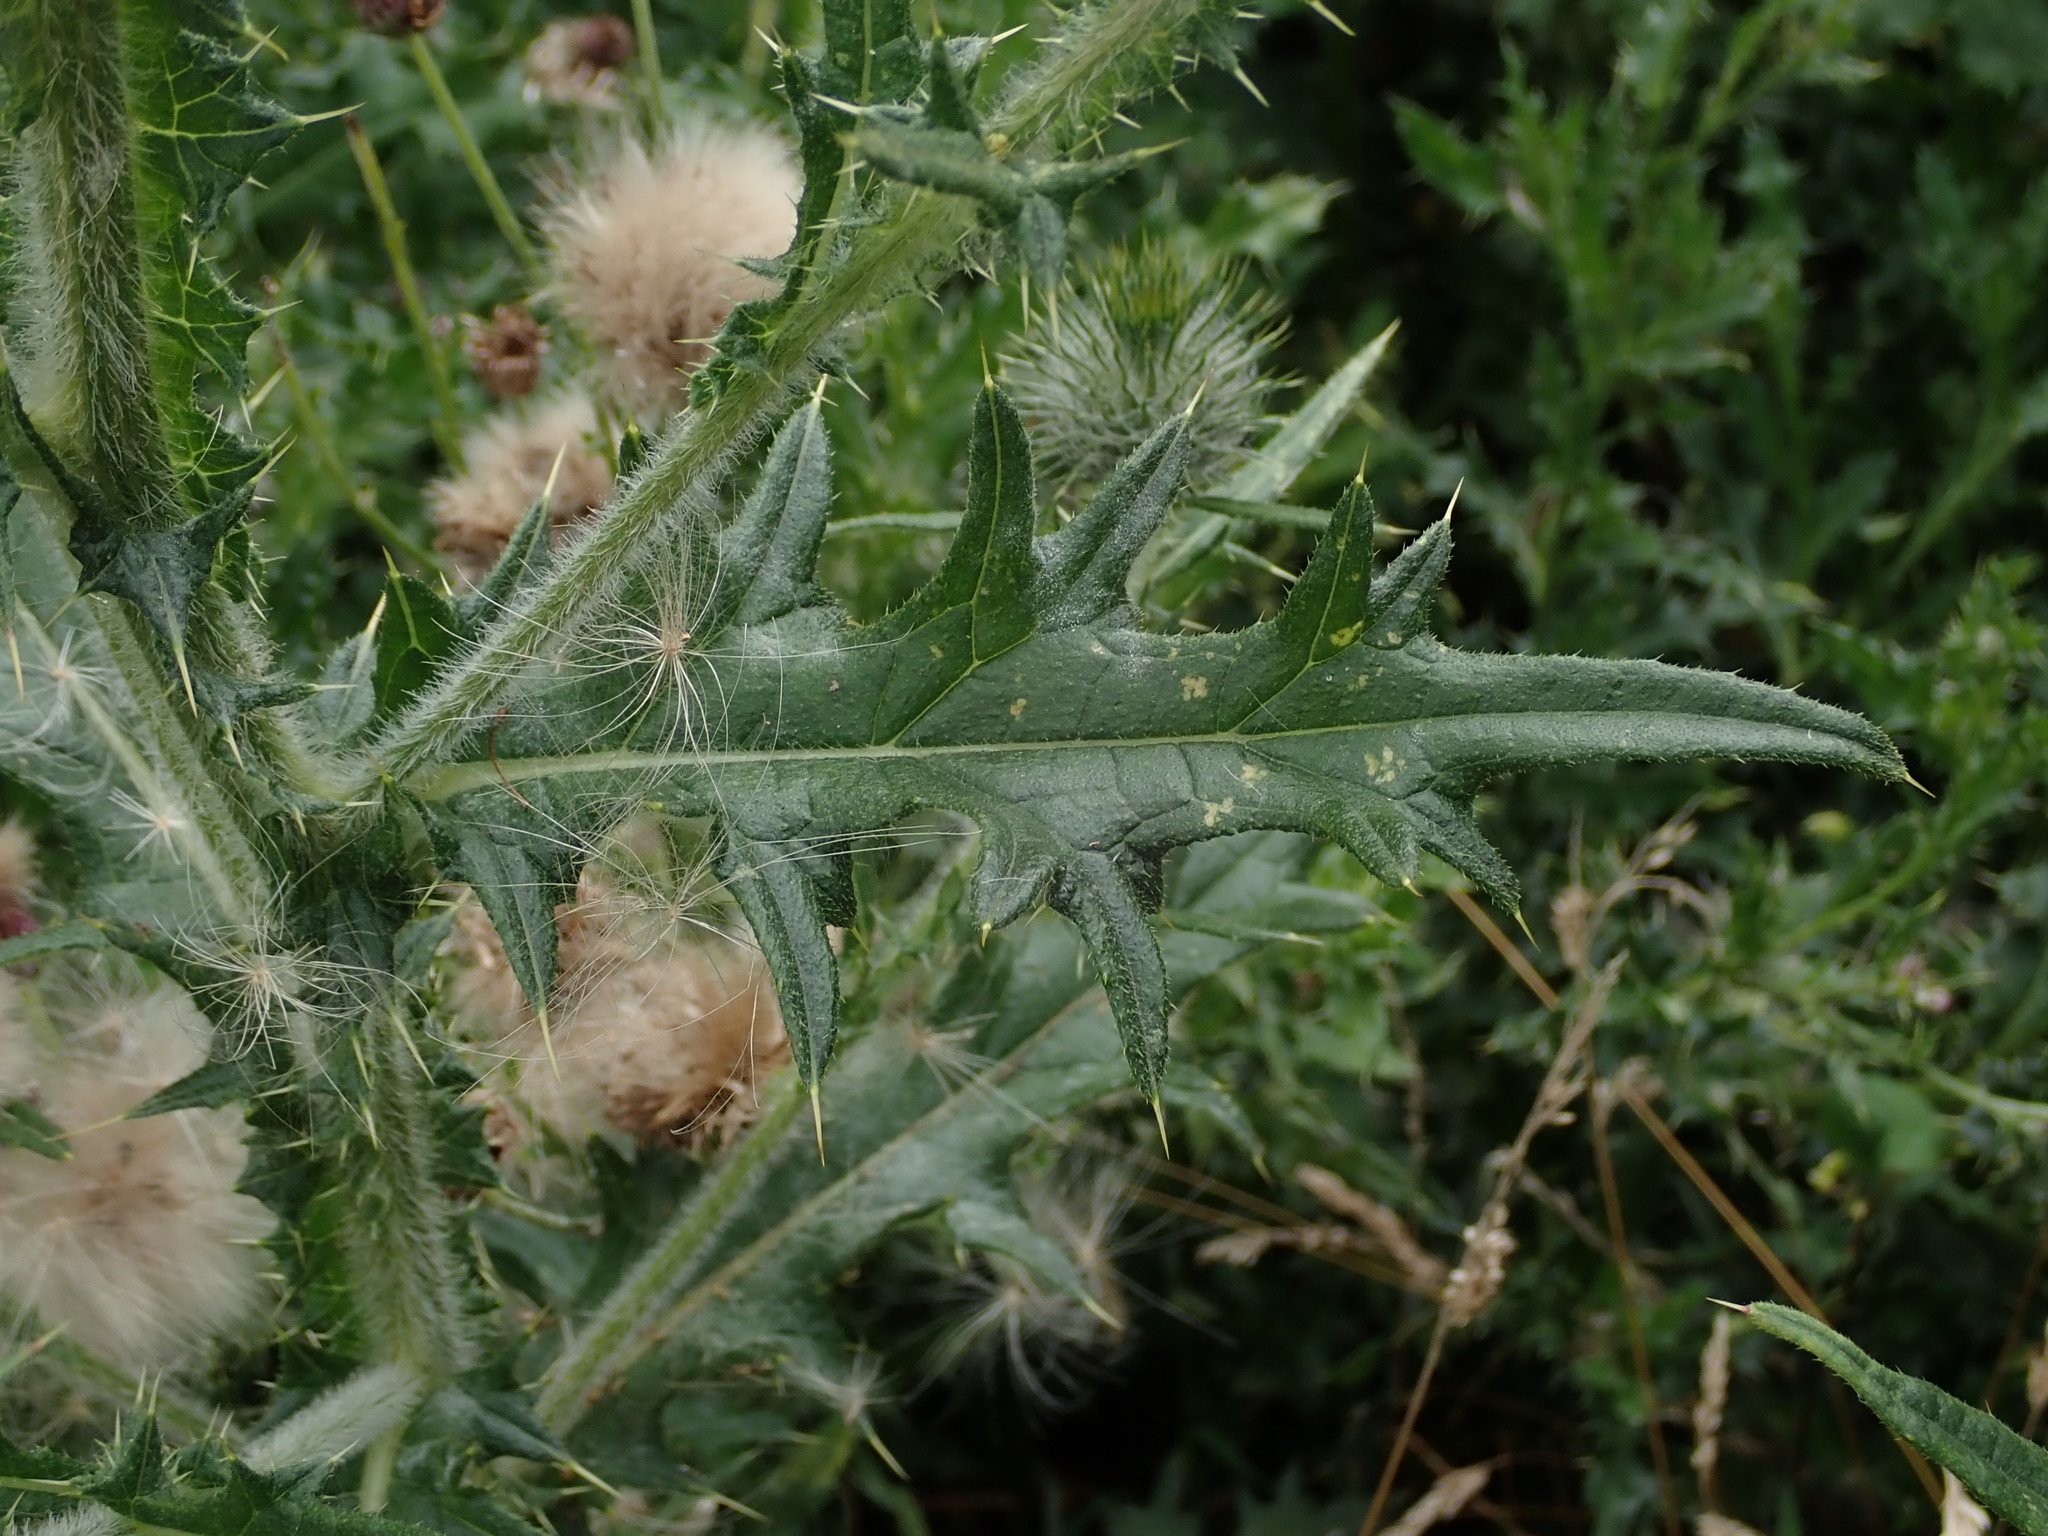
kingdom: Plantae
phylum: Tracheophyta
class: Magnoliopsida
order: Asterales
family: Asteraceae
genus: Cirsium
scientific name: Cirsium vulgare
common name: Bull thistle
